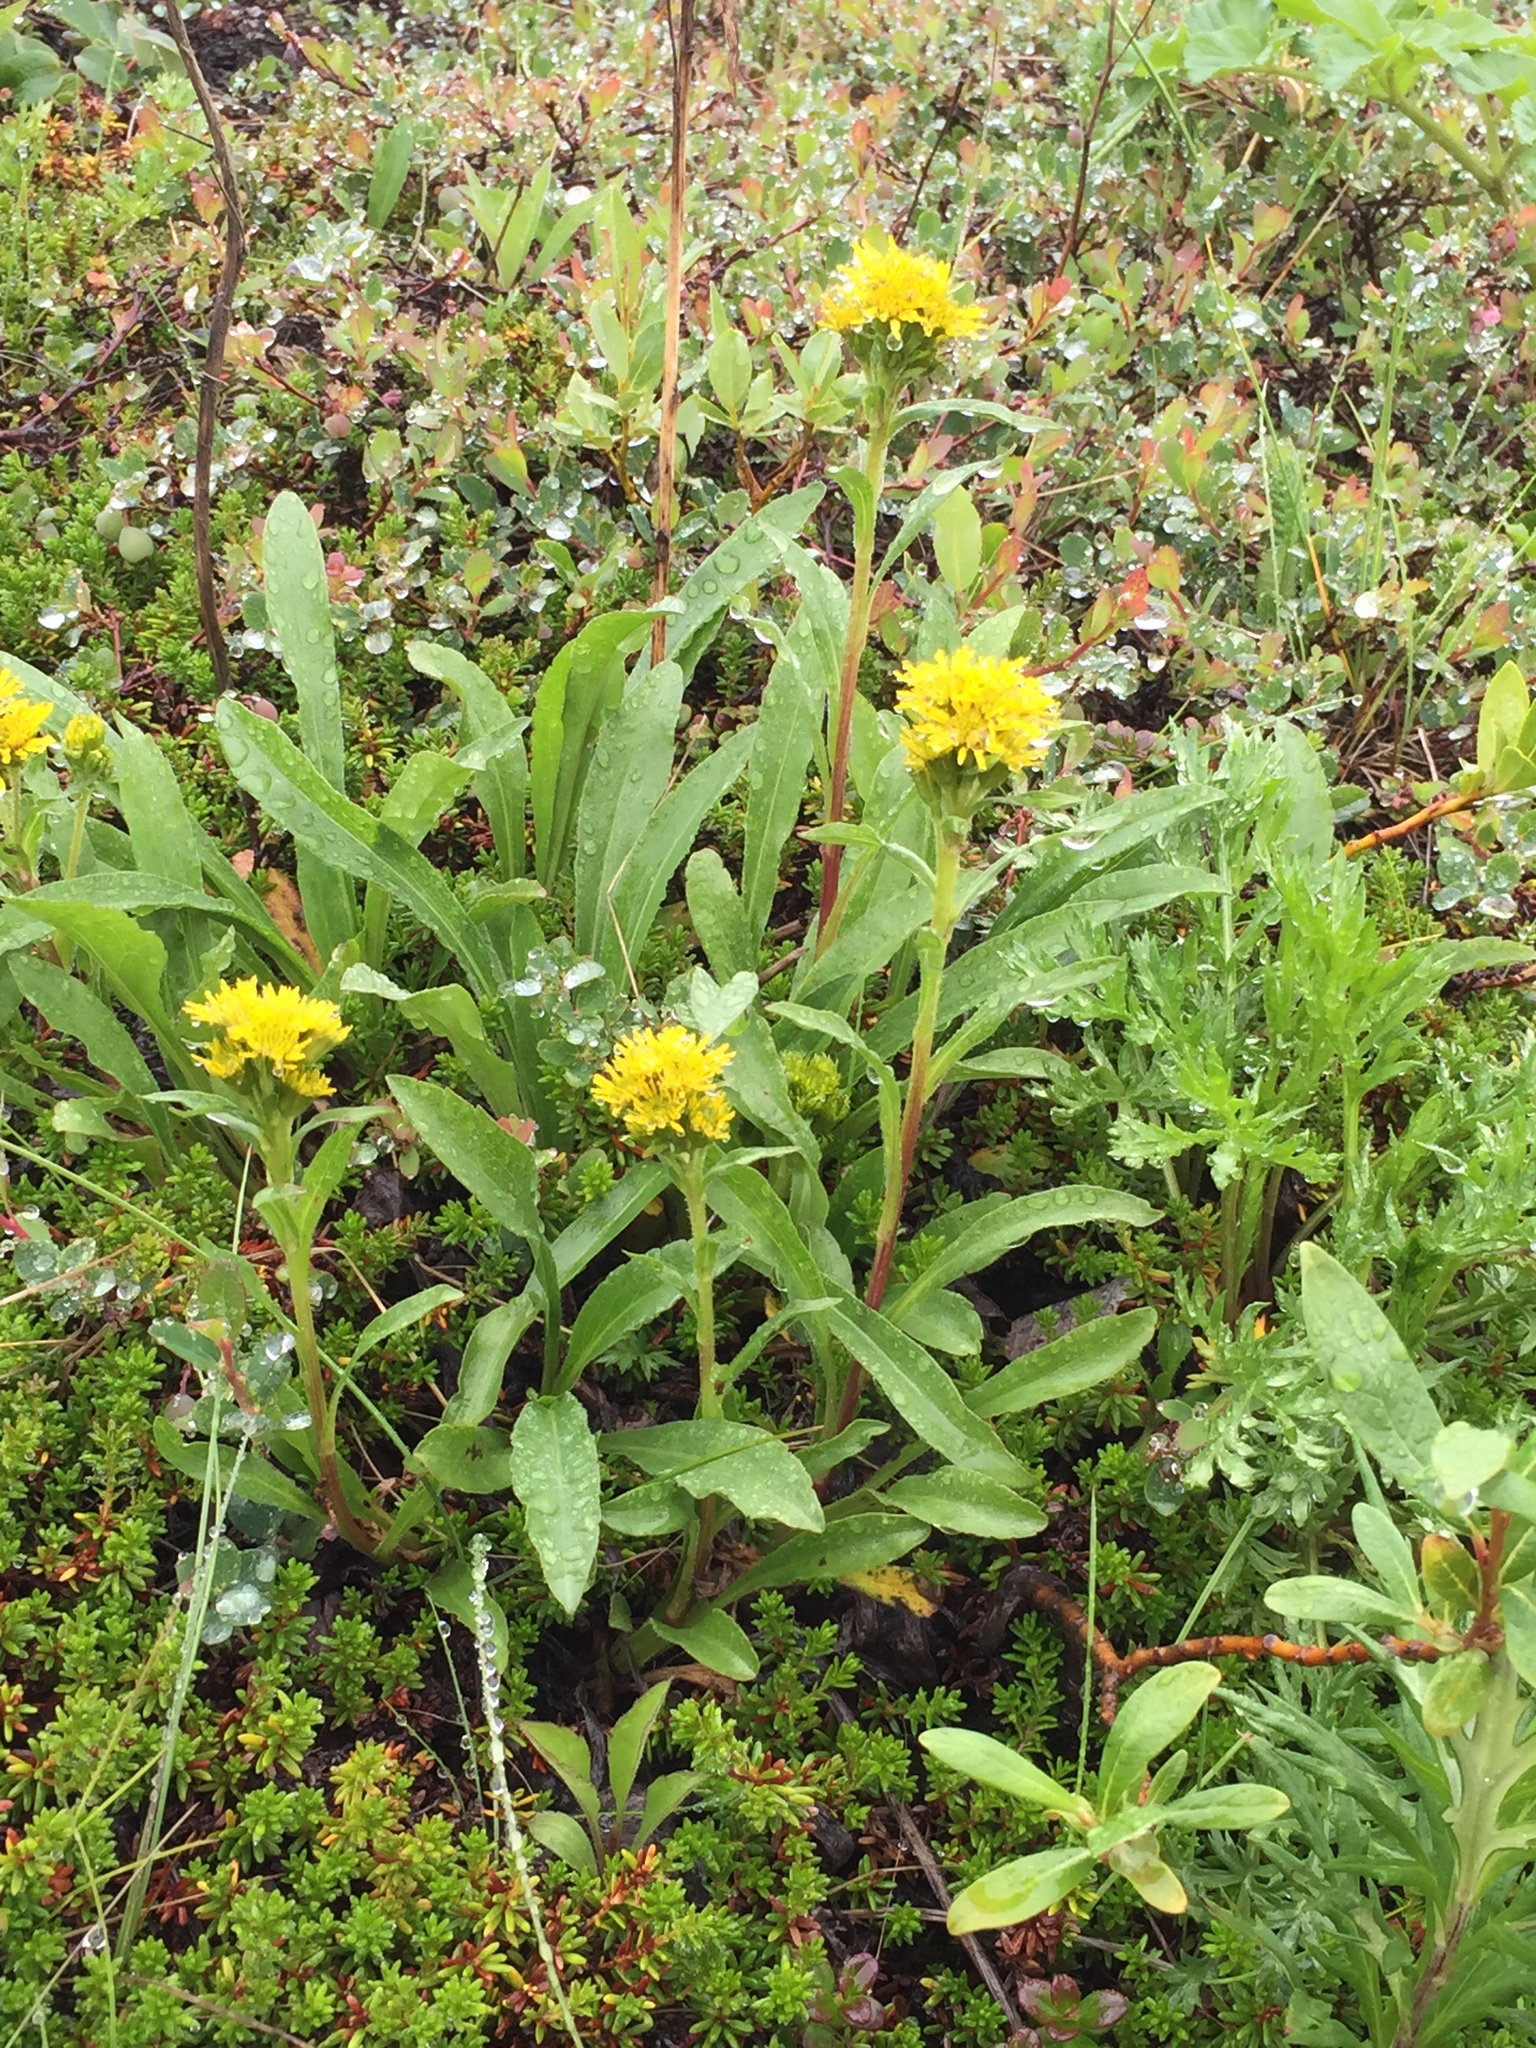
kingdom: Plantae
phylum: Tracheophyta
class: Magnoliopsida
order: Asterales
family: Asteraceae
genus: Solidago
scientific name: Solidago multiradiata
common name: Northern goldenrod
